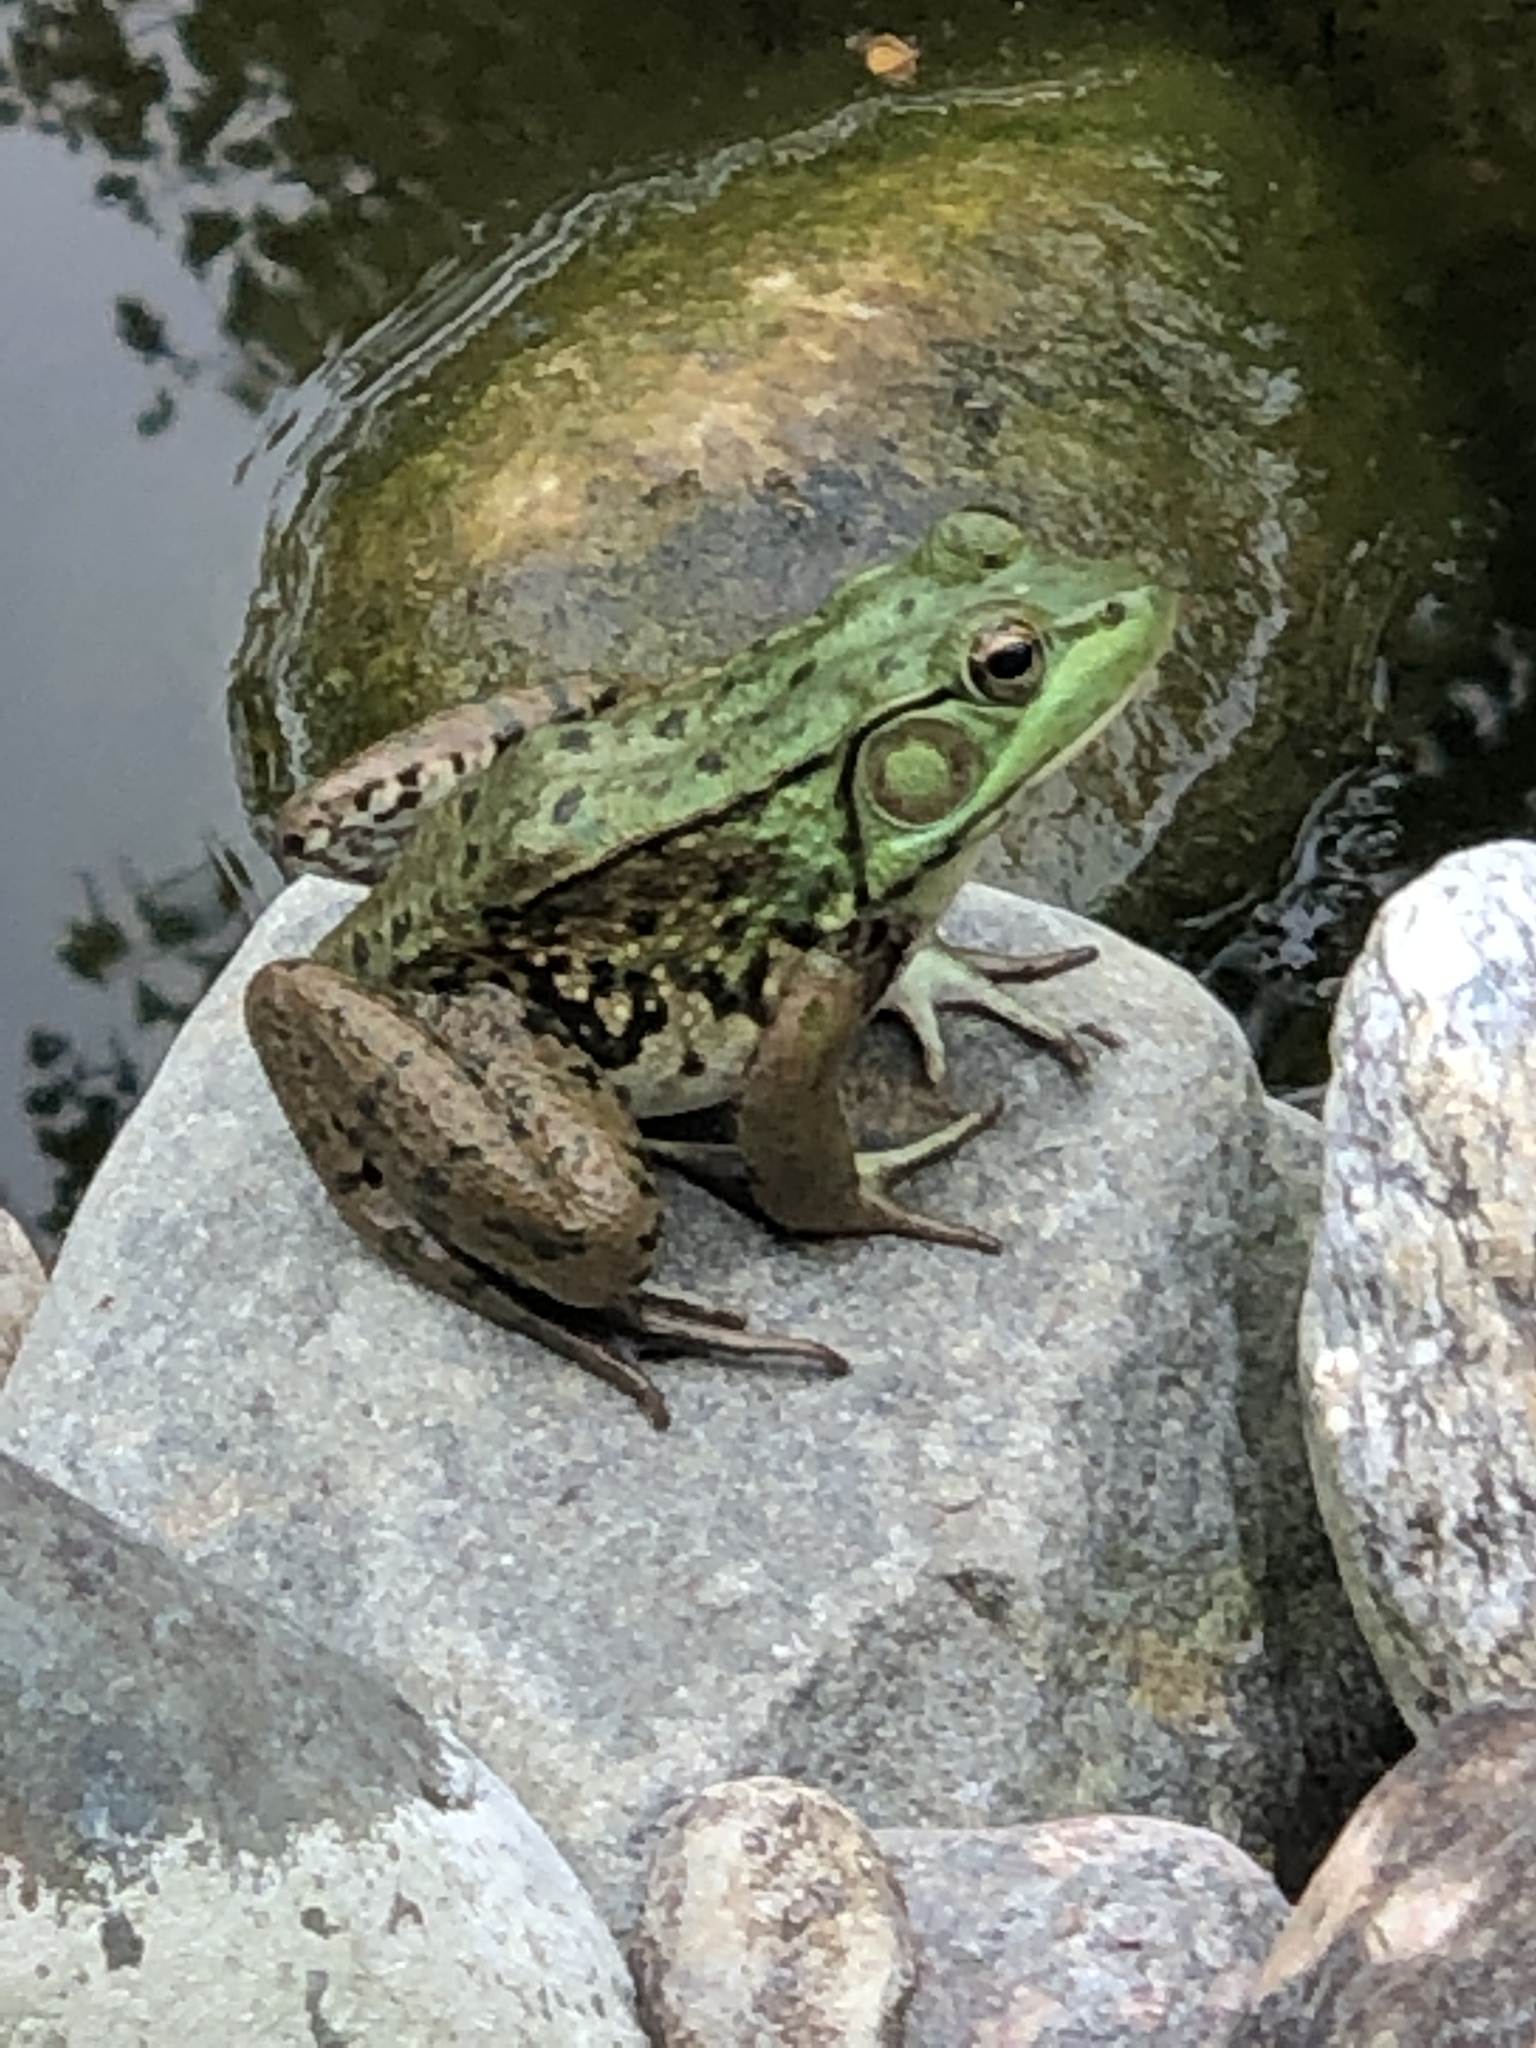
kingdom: Animalia
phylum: Chordata
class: Amphibia
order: Anura
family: Ranidae
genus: Lithobates
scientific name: Lithobates clamitans
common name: Green frog
